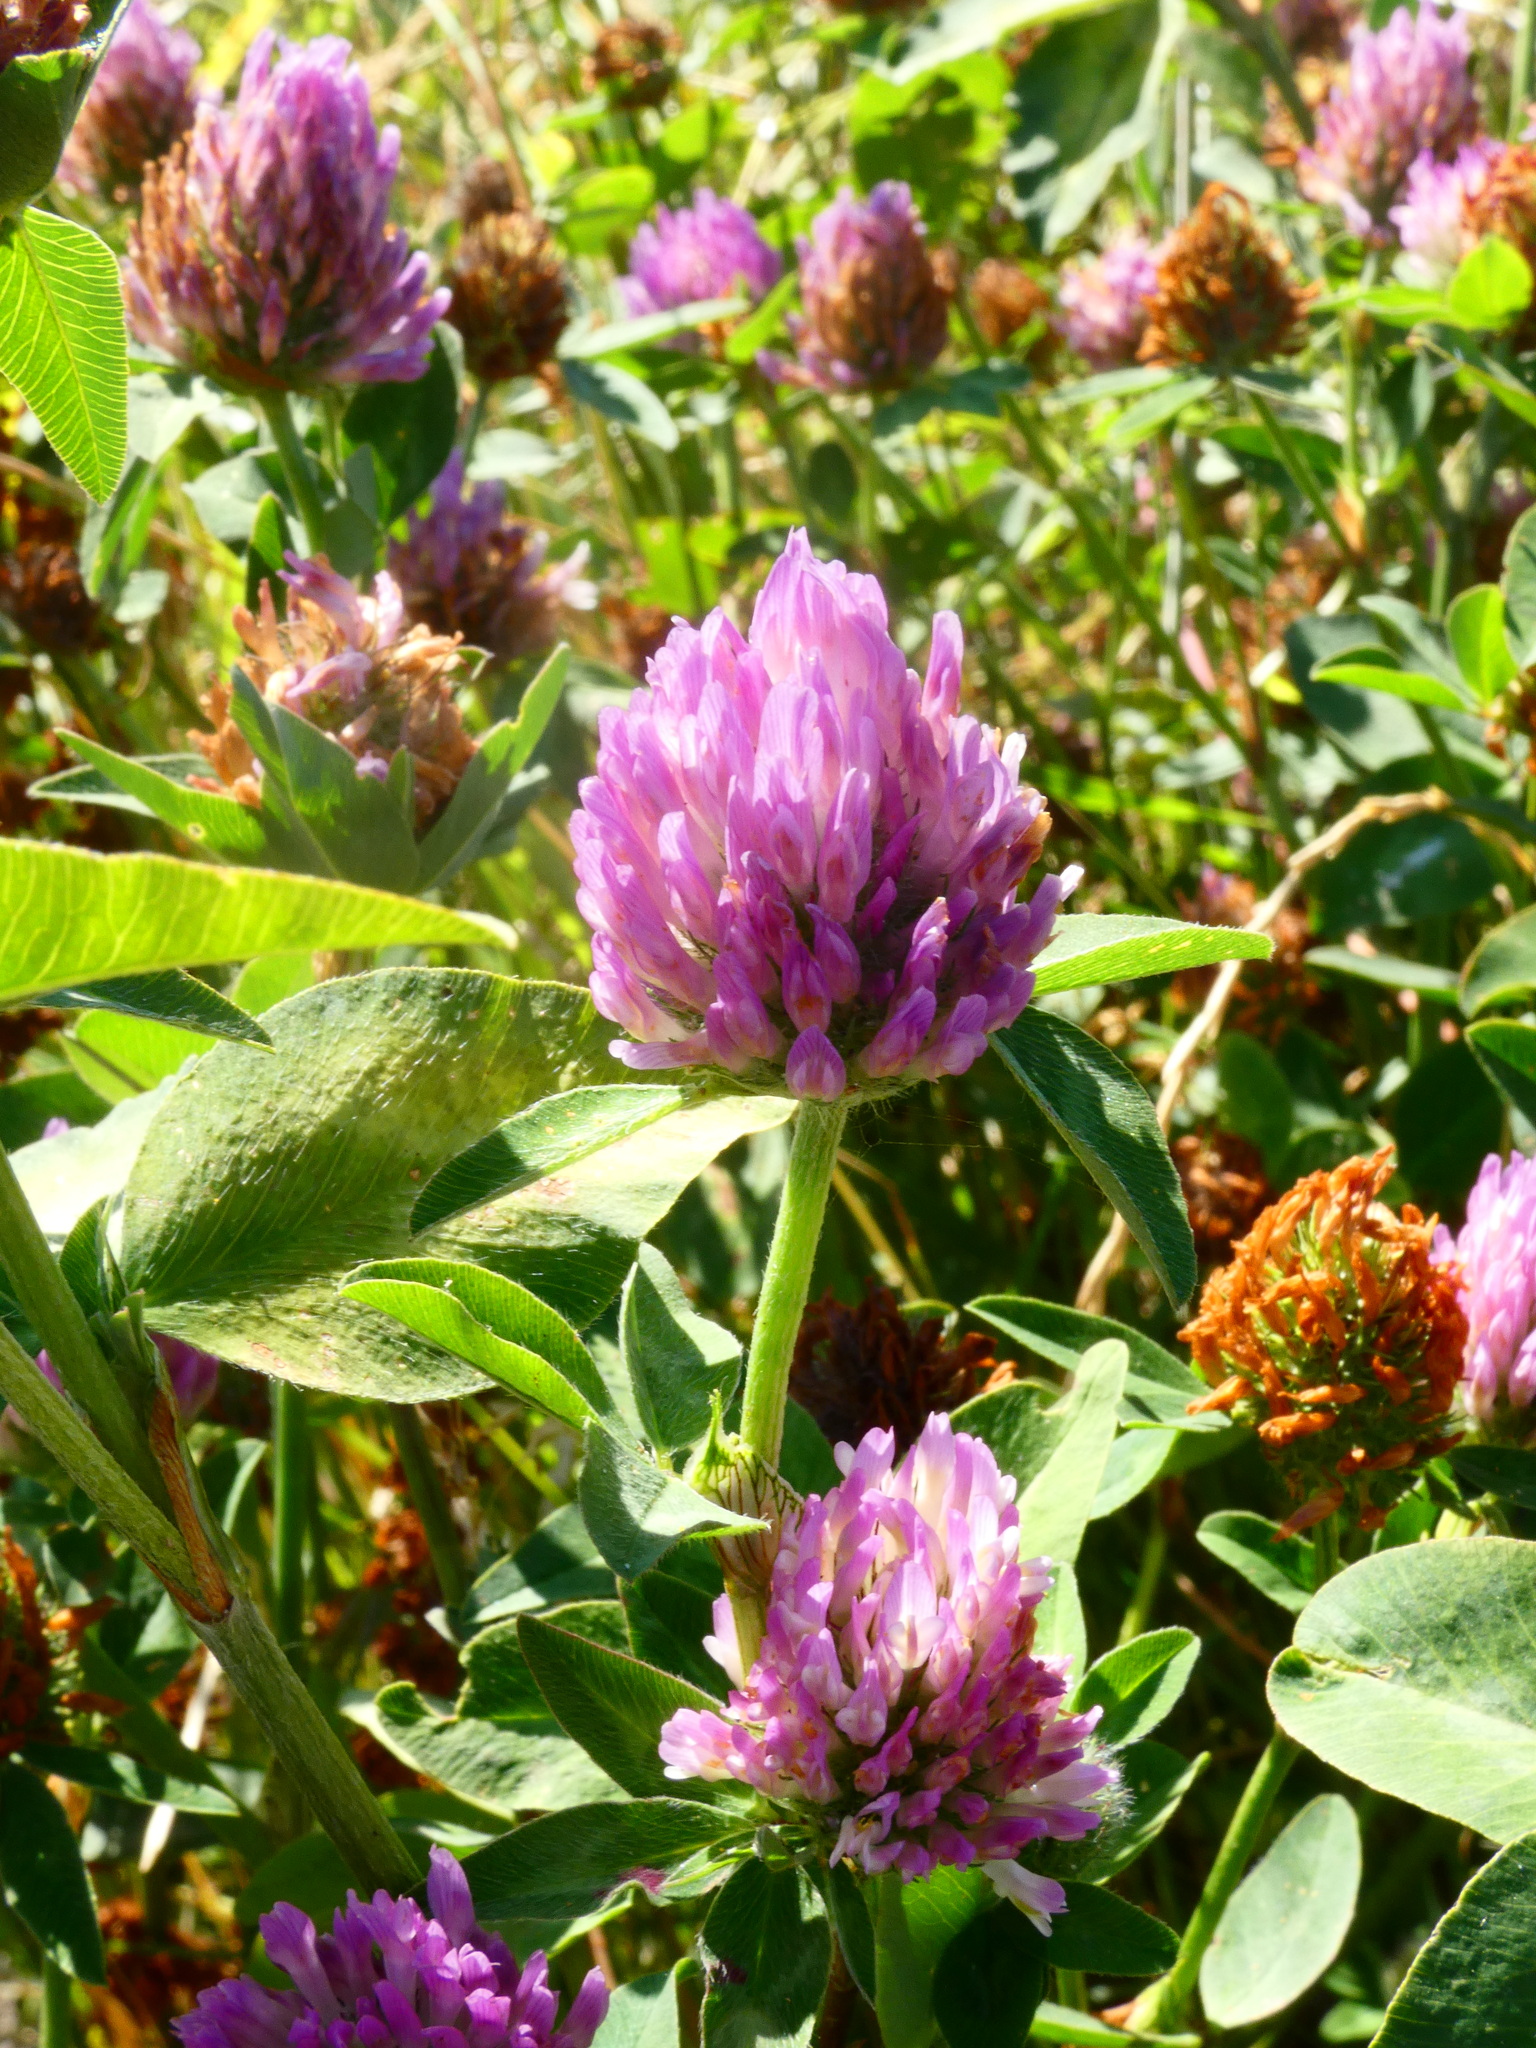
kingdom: Plantae
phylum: Tracheophyta
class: Magnoliopsida
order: Fabales
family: Fabaceae
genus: Trifolium
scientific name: Trifolium pratense
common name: Red clover
